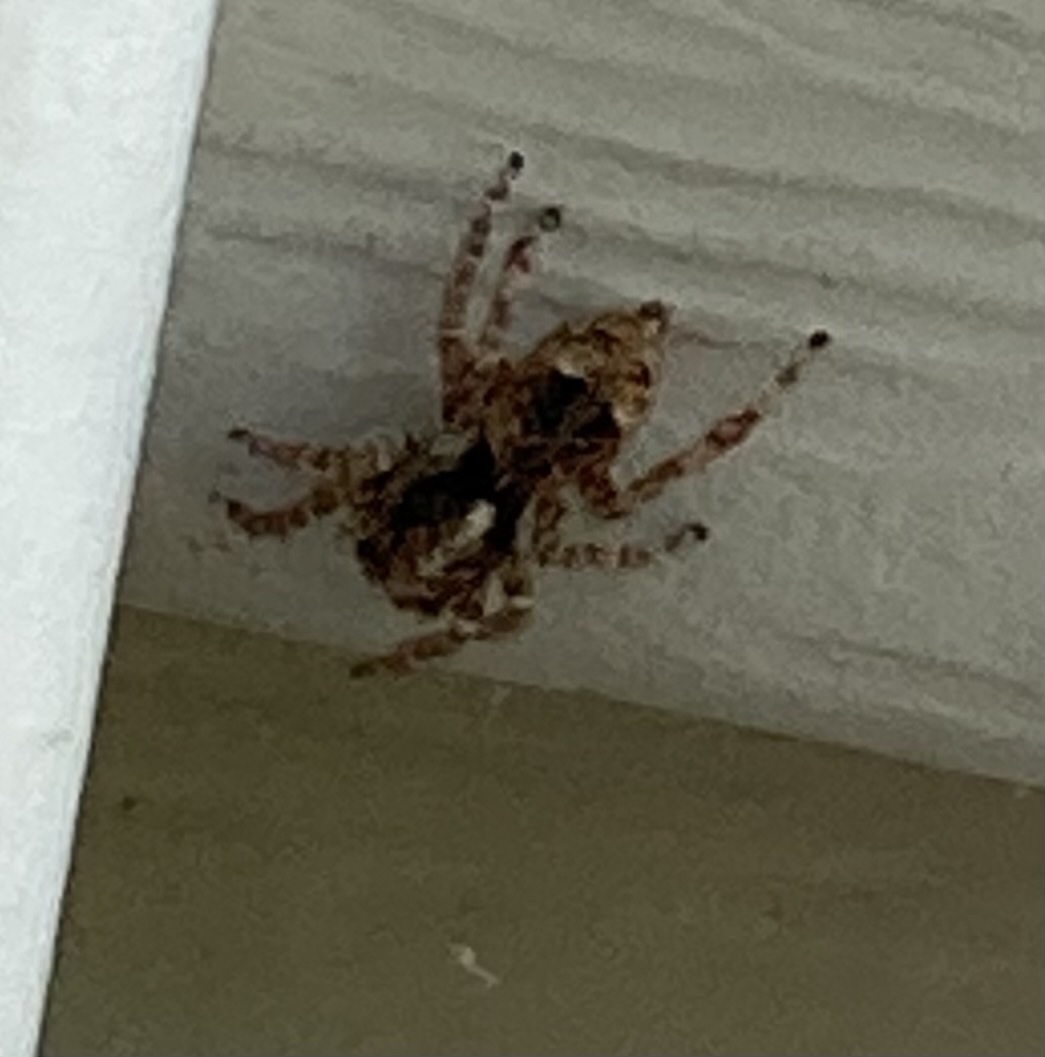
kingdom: Animalia
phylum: Arthropoda
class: Arachnida
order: Araneae
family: Salticidae
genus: Attulus
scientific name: Attulus fasciger
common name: Asiatic wall jumping spider
